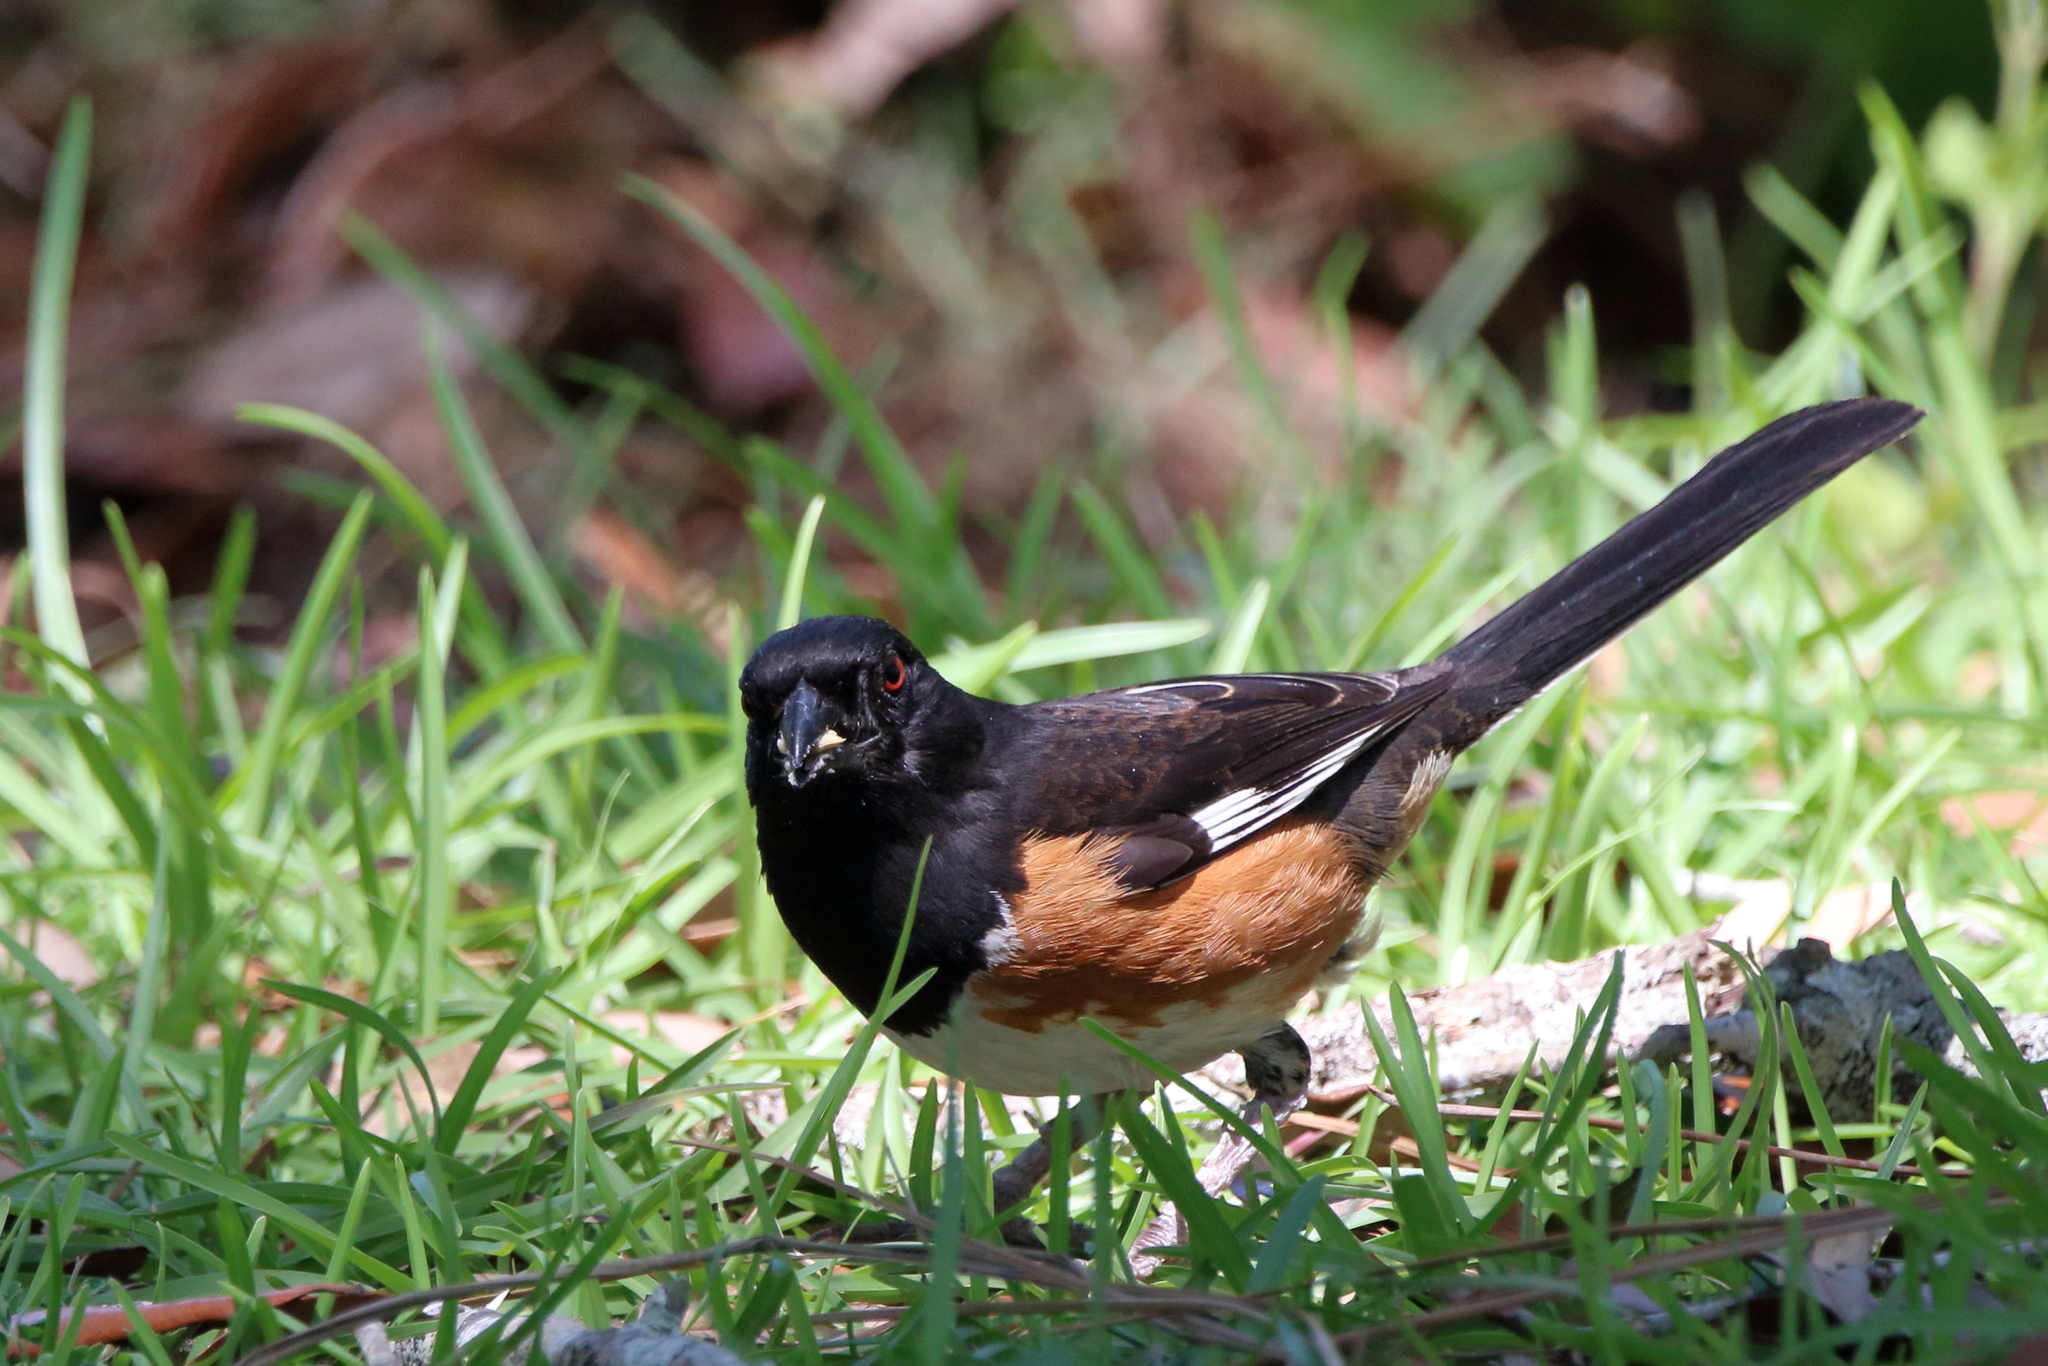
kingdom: Animalia
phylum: Chordata
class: Aves
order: Passeriformes
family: Passerellidae
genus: Pipilo
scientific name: Pipilo erythrophthalmus
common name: Eastern towhee
